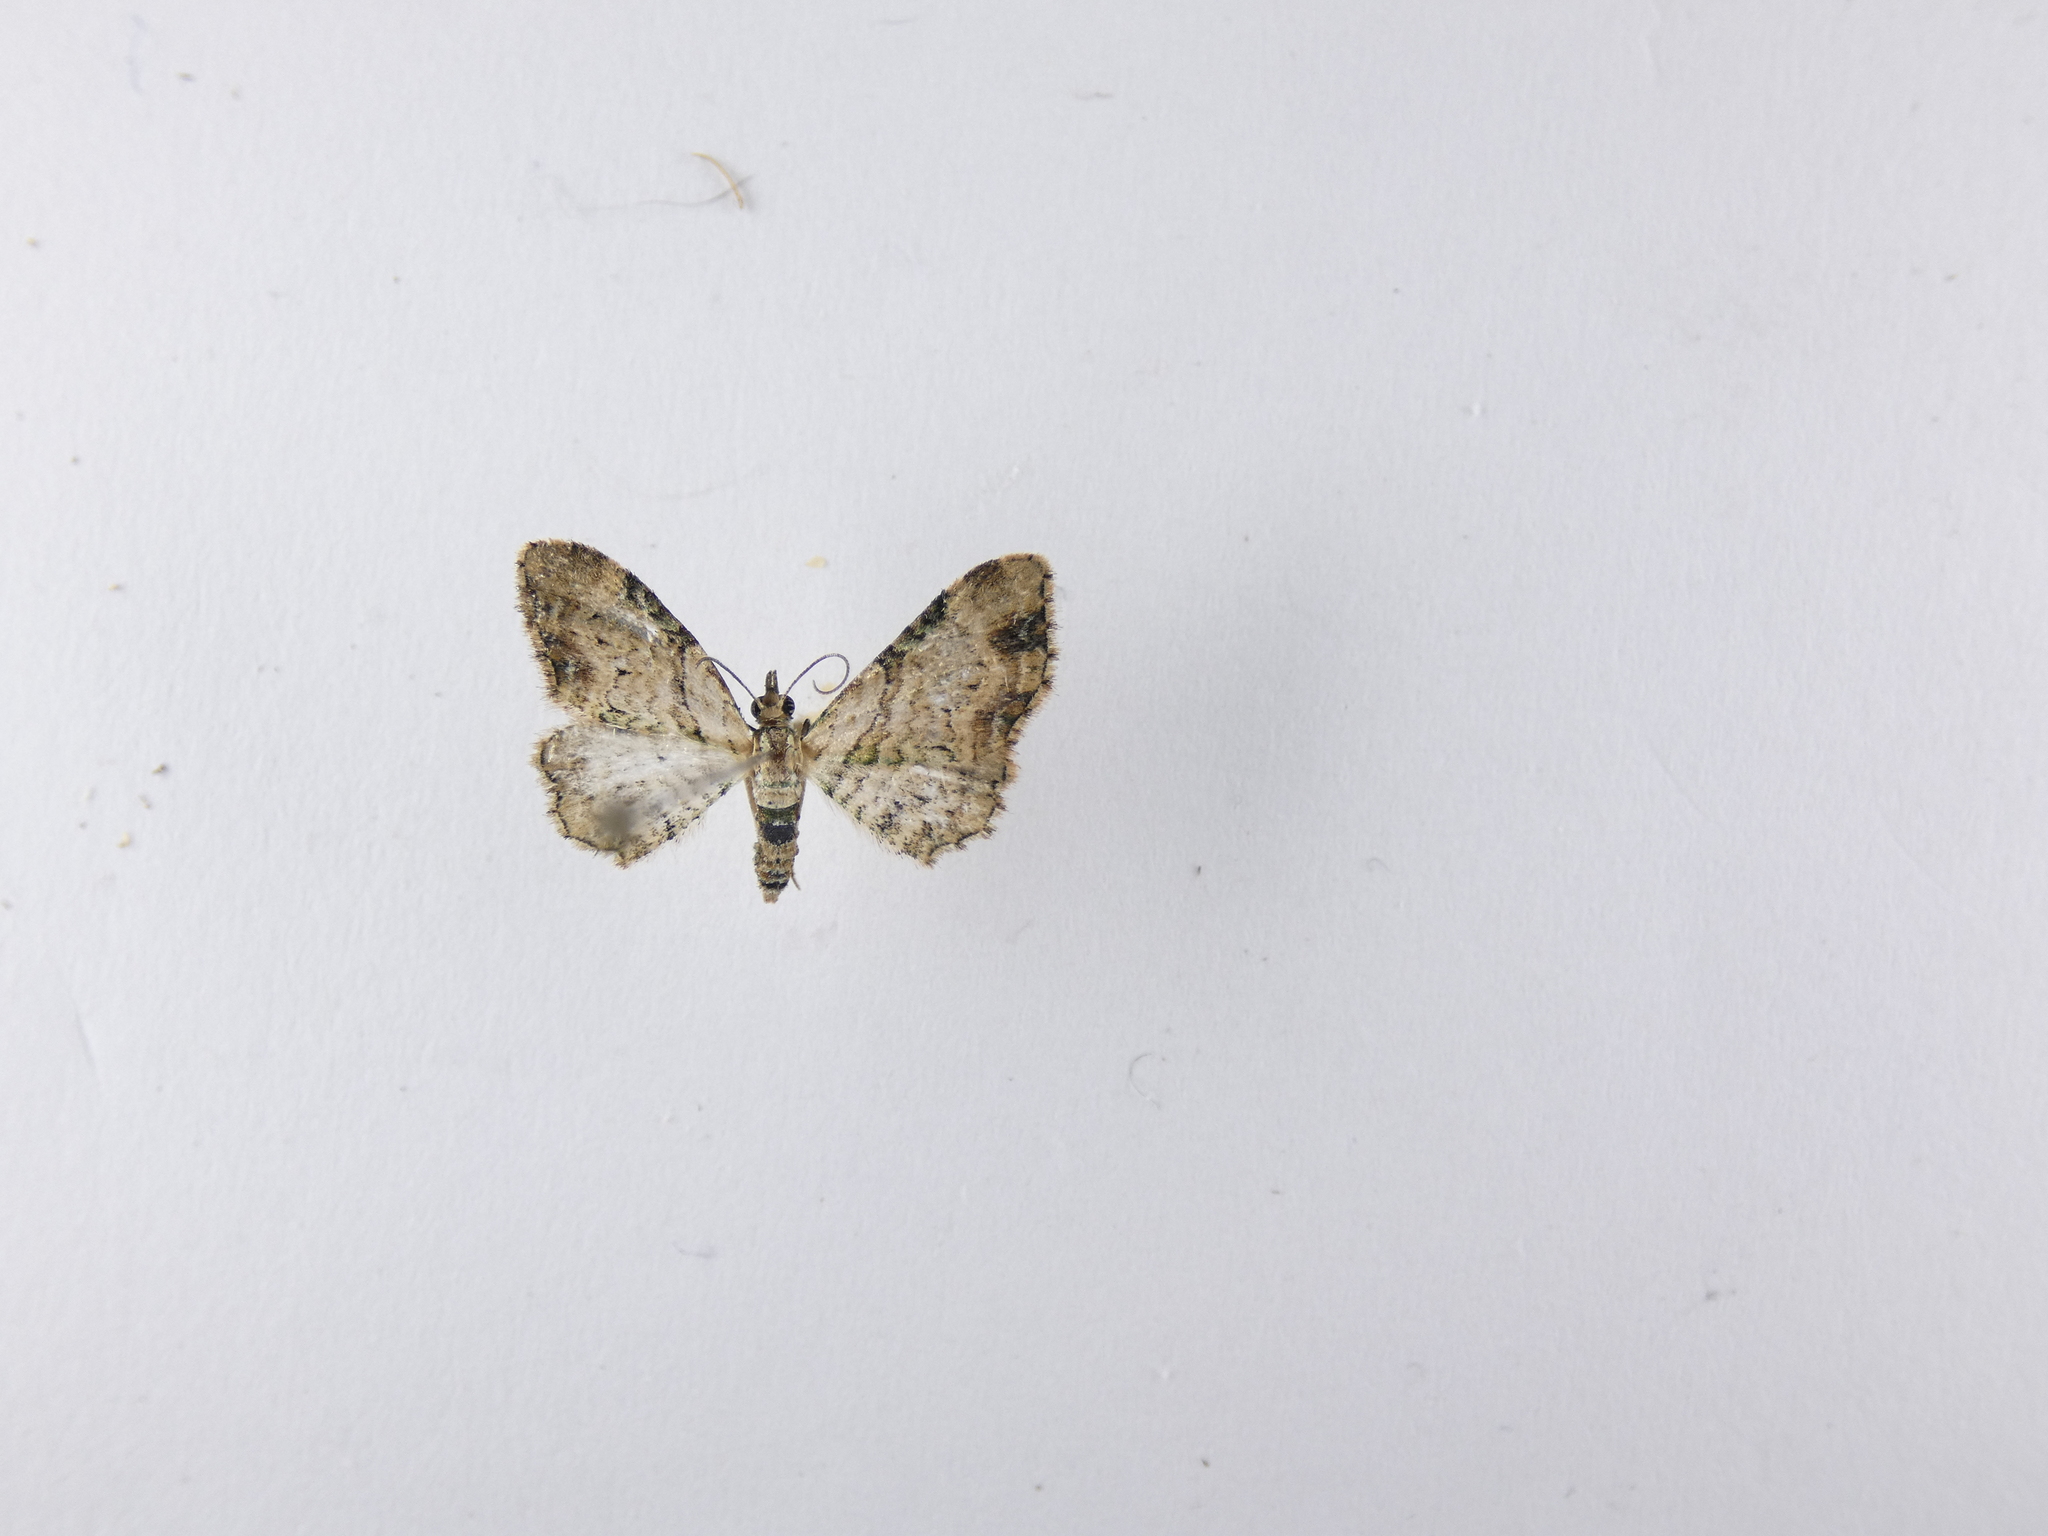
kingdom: Animalia
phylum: Arthropoda
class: Insecta
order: Lepidoptera
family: Geometridae
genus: Chloroclystis
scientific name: Chloroclystis
